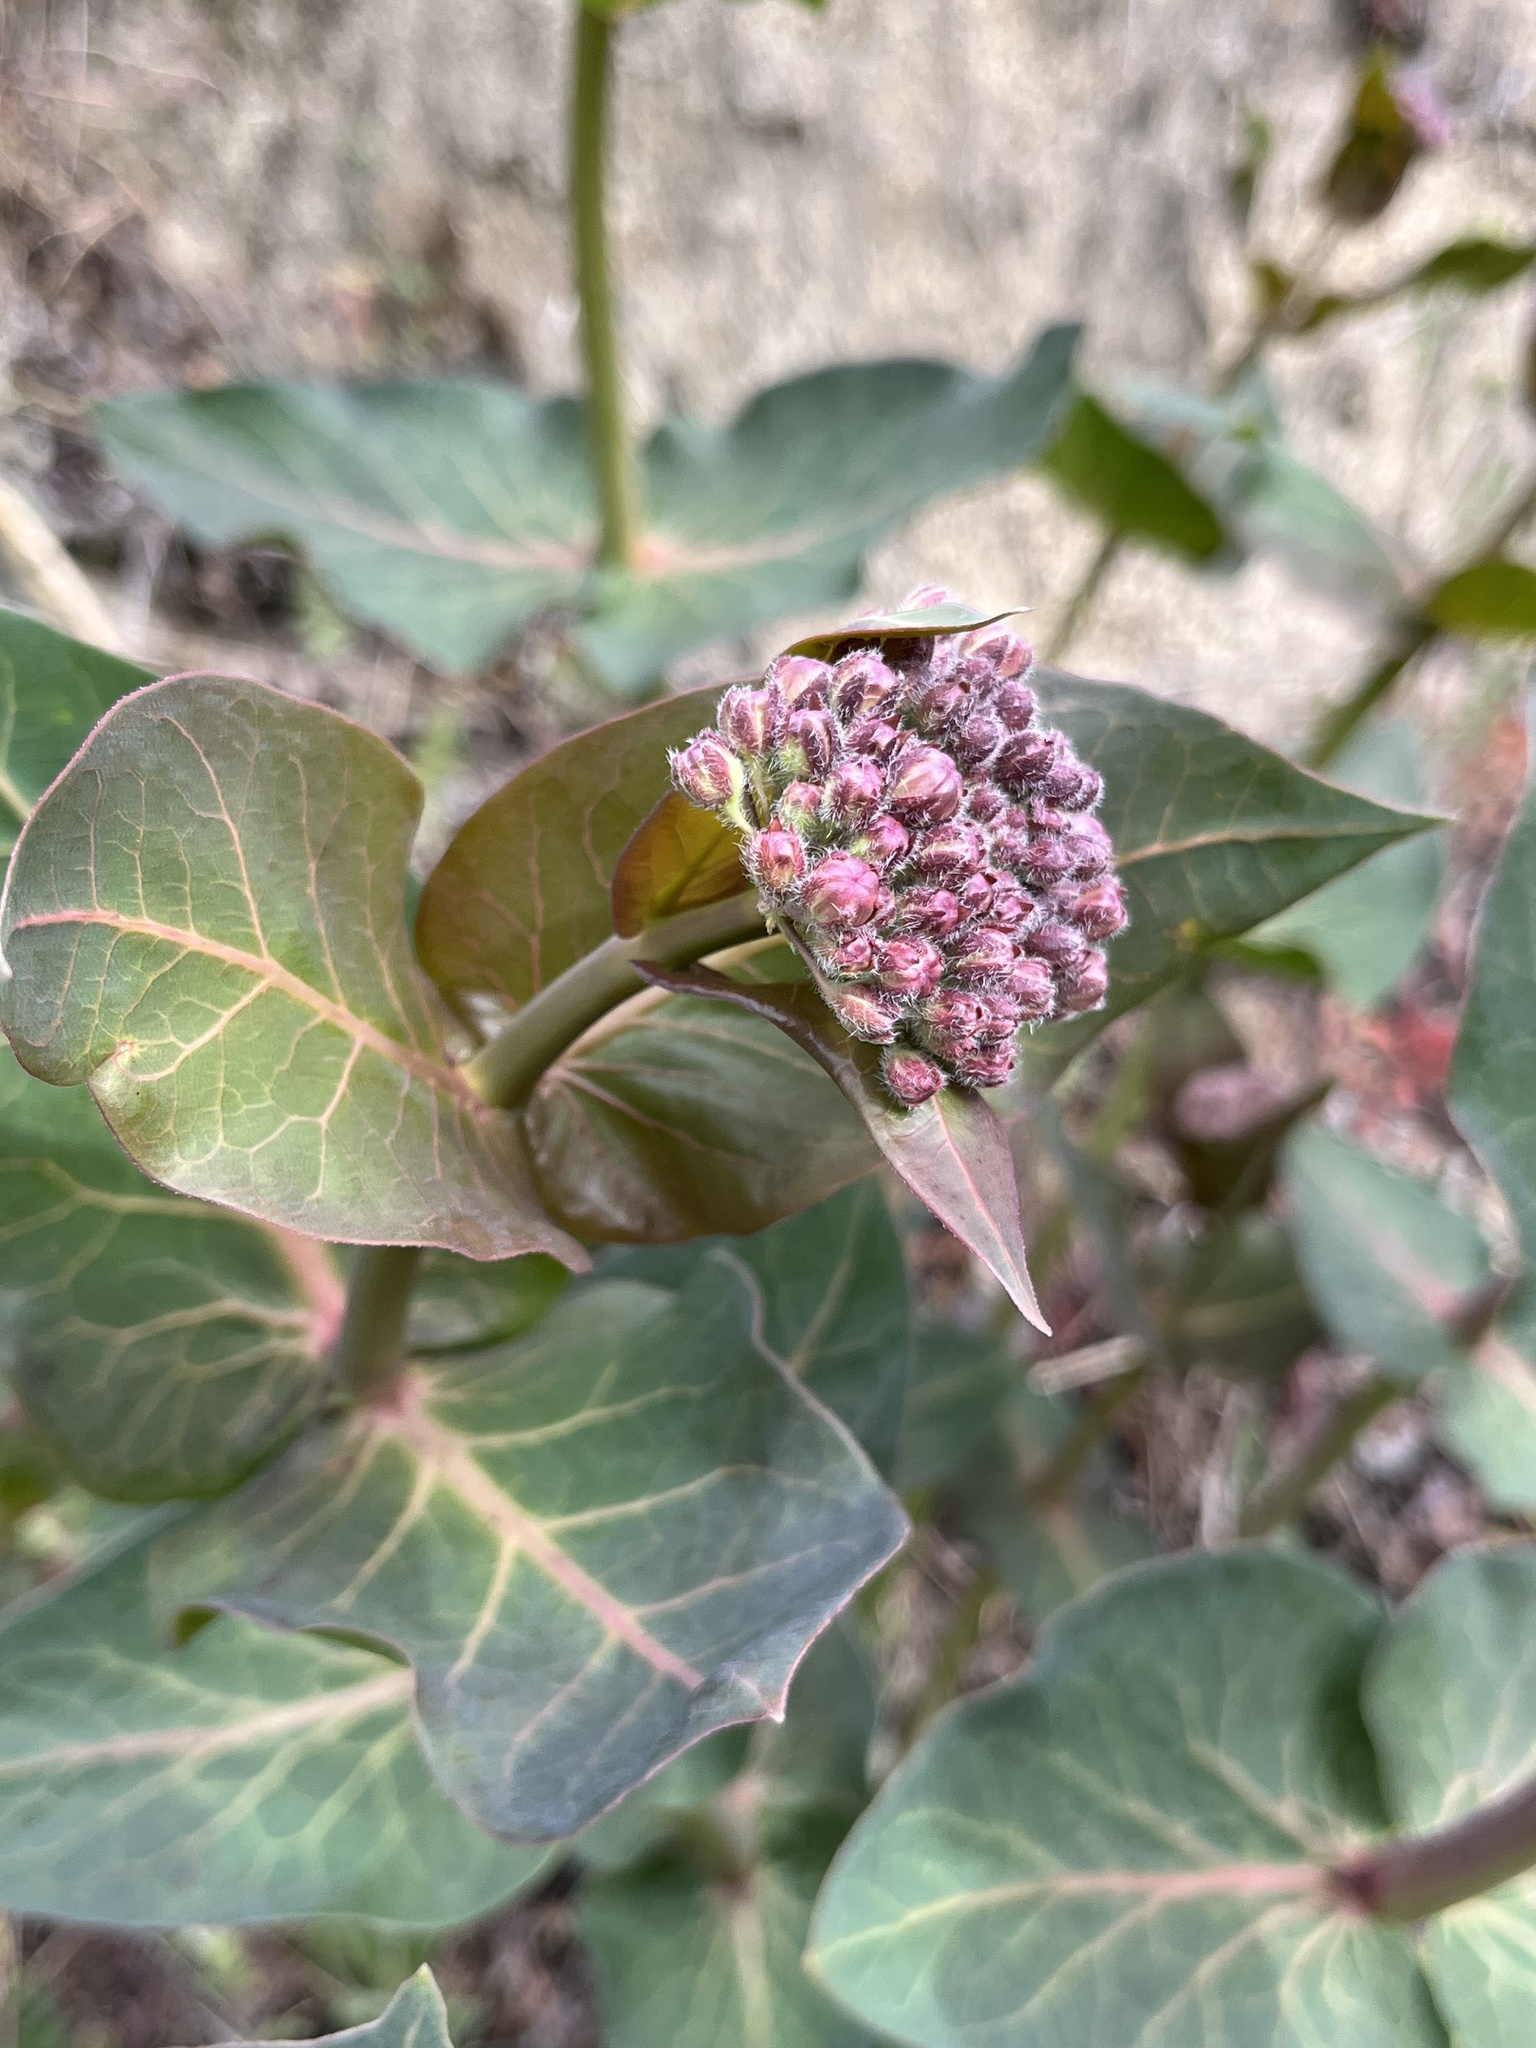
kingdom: Plantae
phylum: Tracheophyta
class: Magnoliopsida
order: Gentianales
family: Apocynaceae
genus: Asclepias
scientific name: Asclepias cordifolia
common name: Purple milkweed
